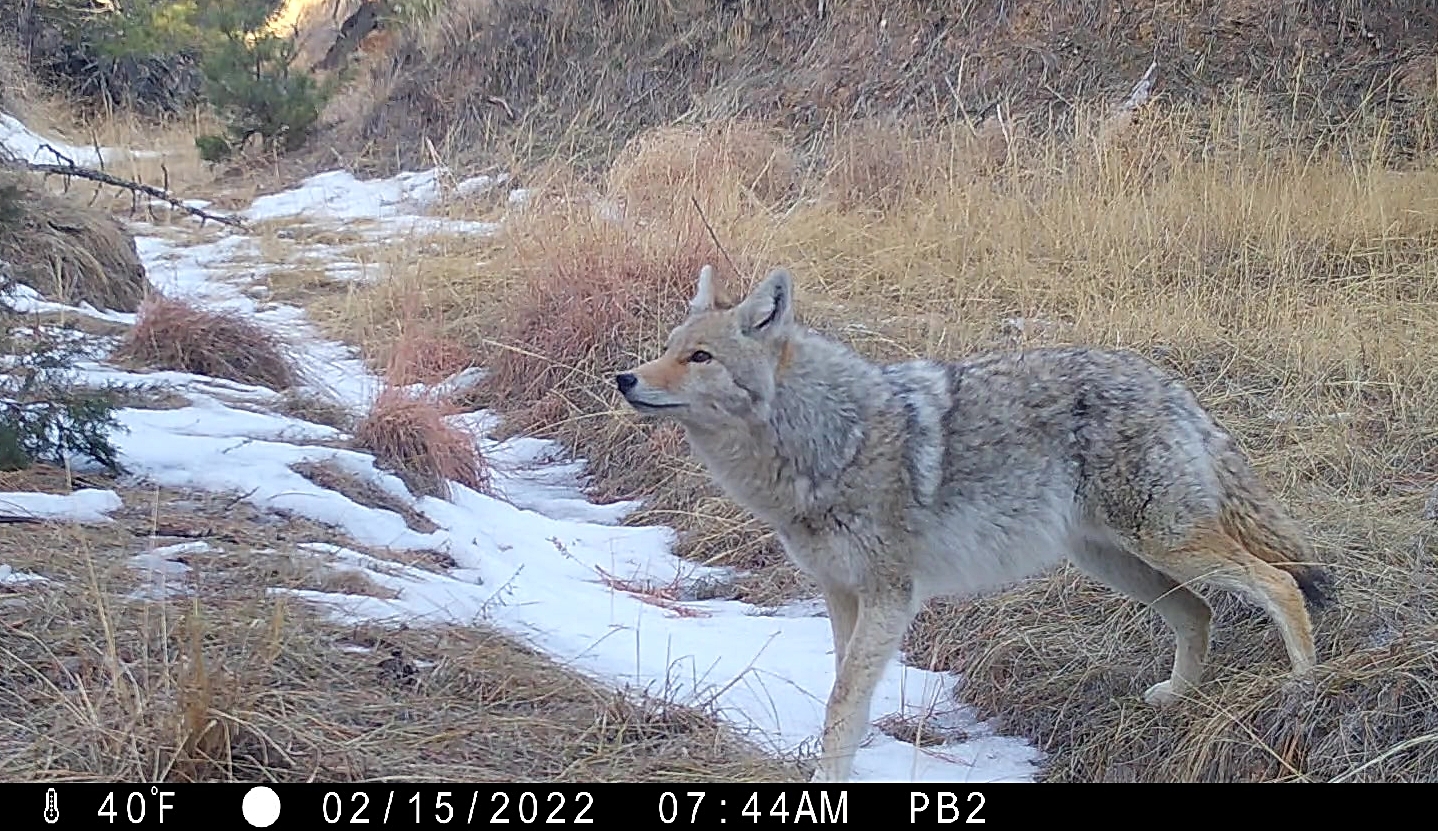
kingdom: Animalia
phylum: Chordata
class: Mammalia
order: Carnivora
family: Canidae
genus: Canis
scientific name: Canis latrans
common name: Coyote
